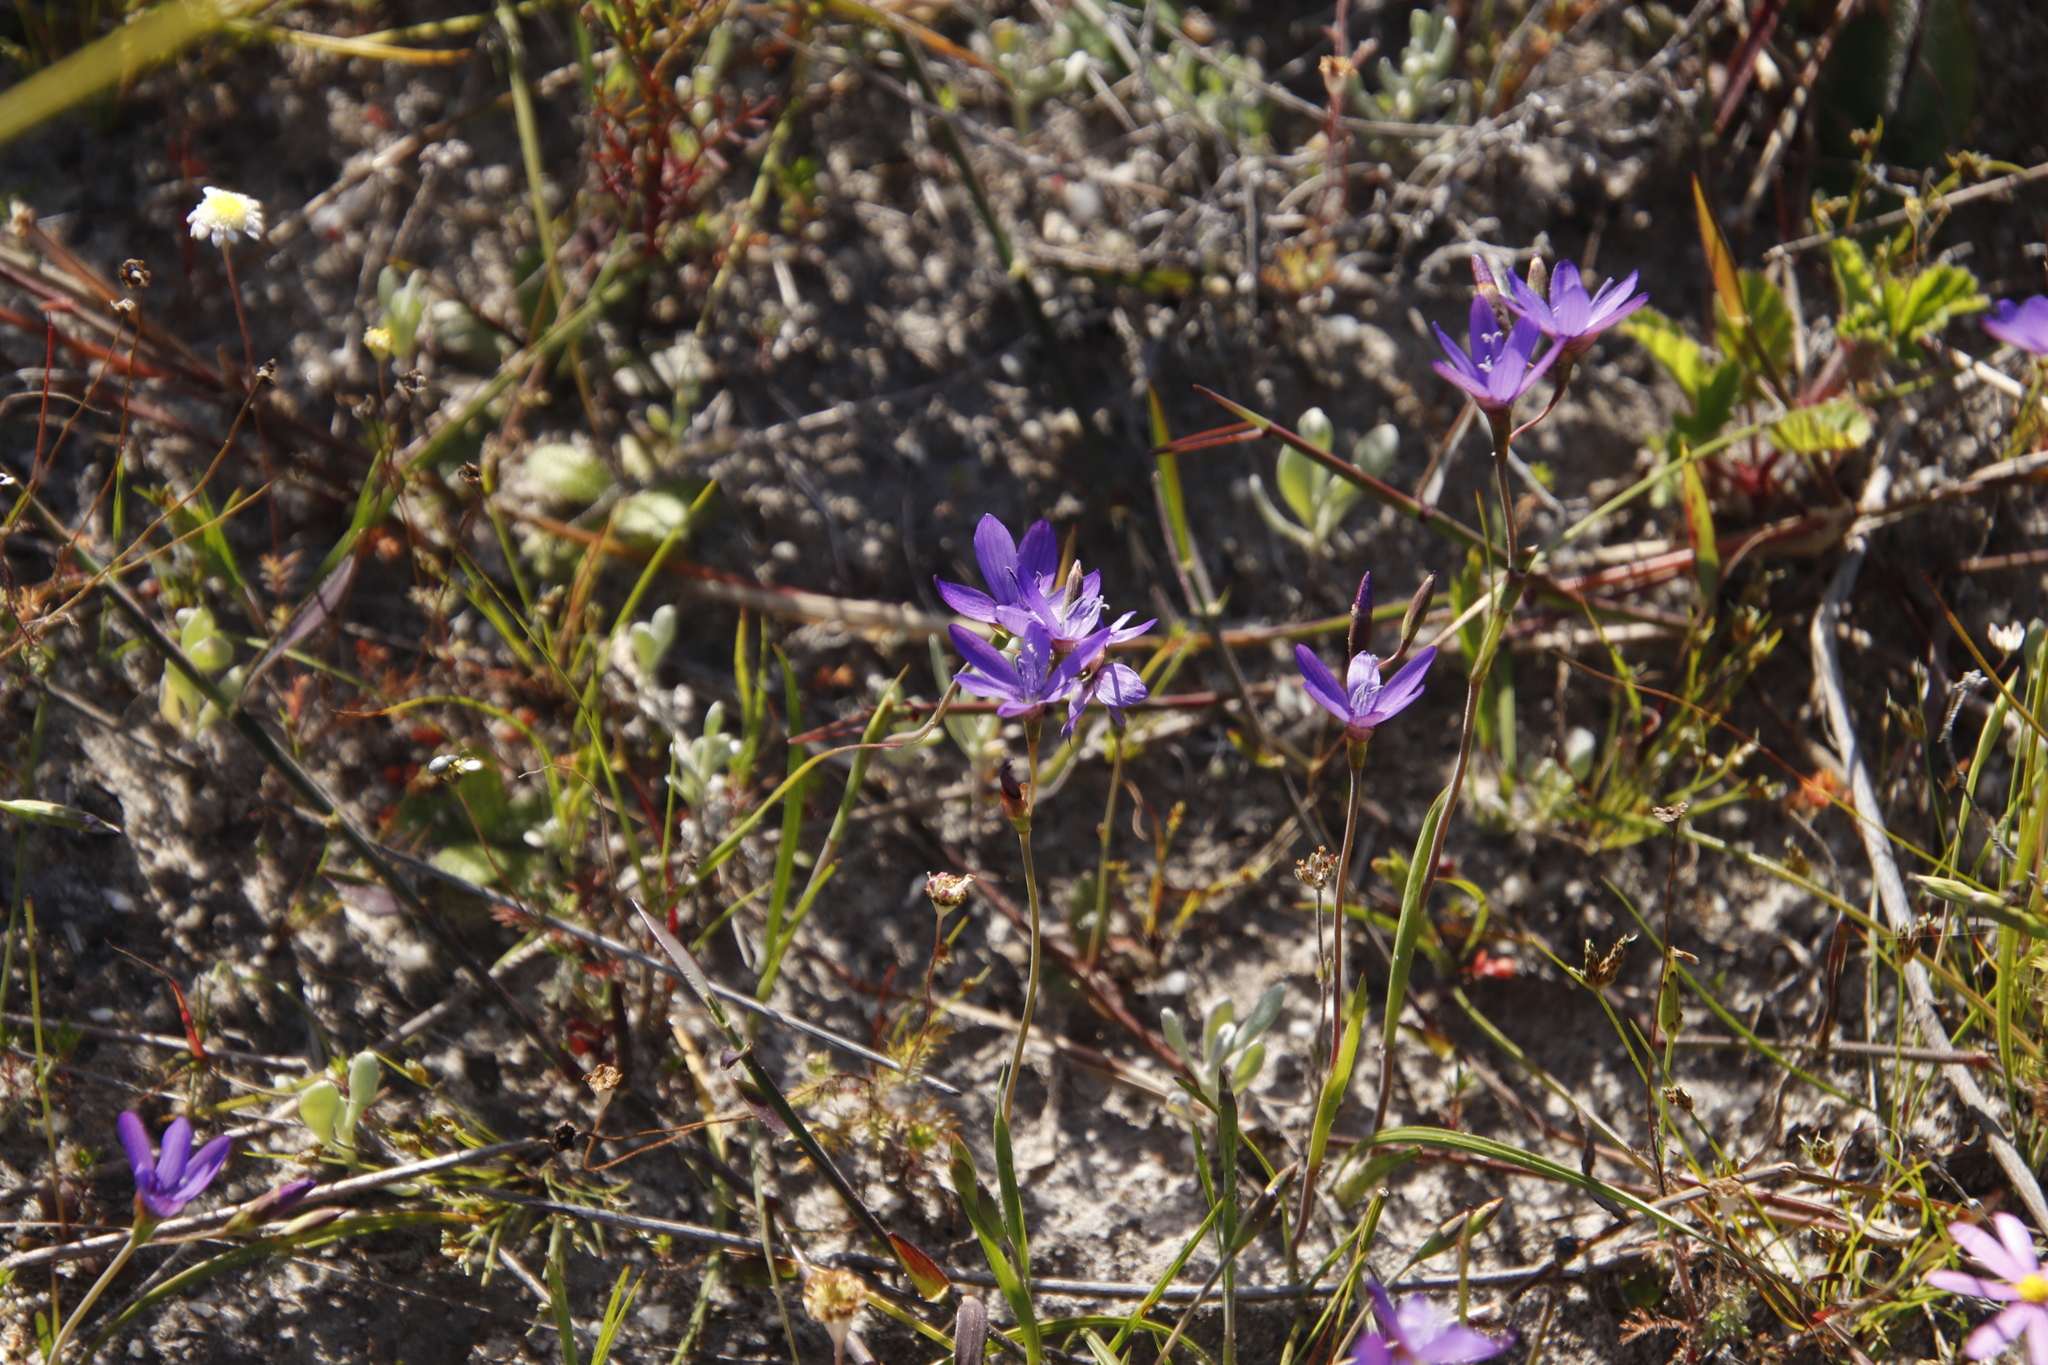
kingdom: Plantae
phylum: Tracheophyta
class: Liliopsida
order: Asparagales
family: Iridaceae
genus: Geissorhiza
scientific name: Geissorhiza aspera
